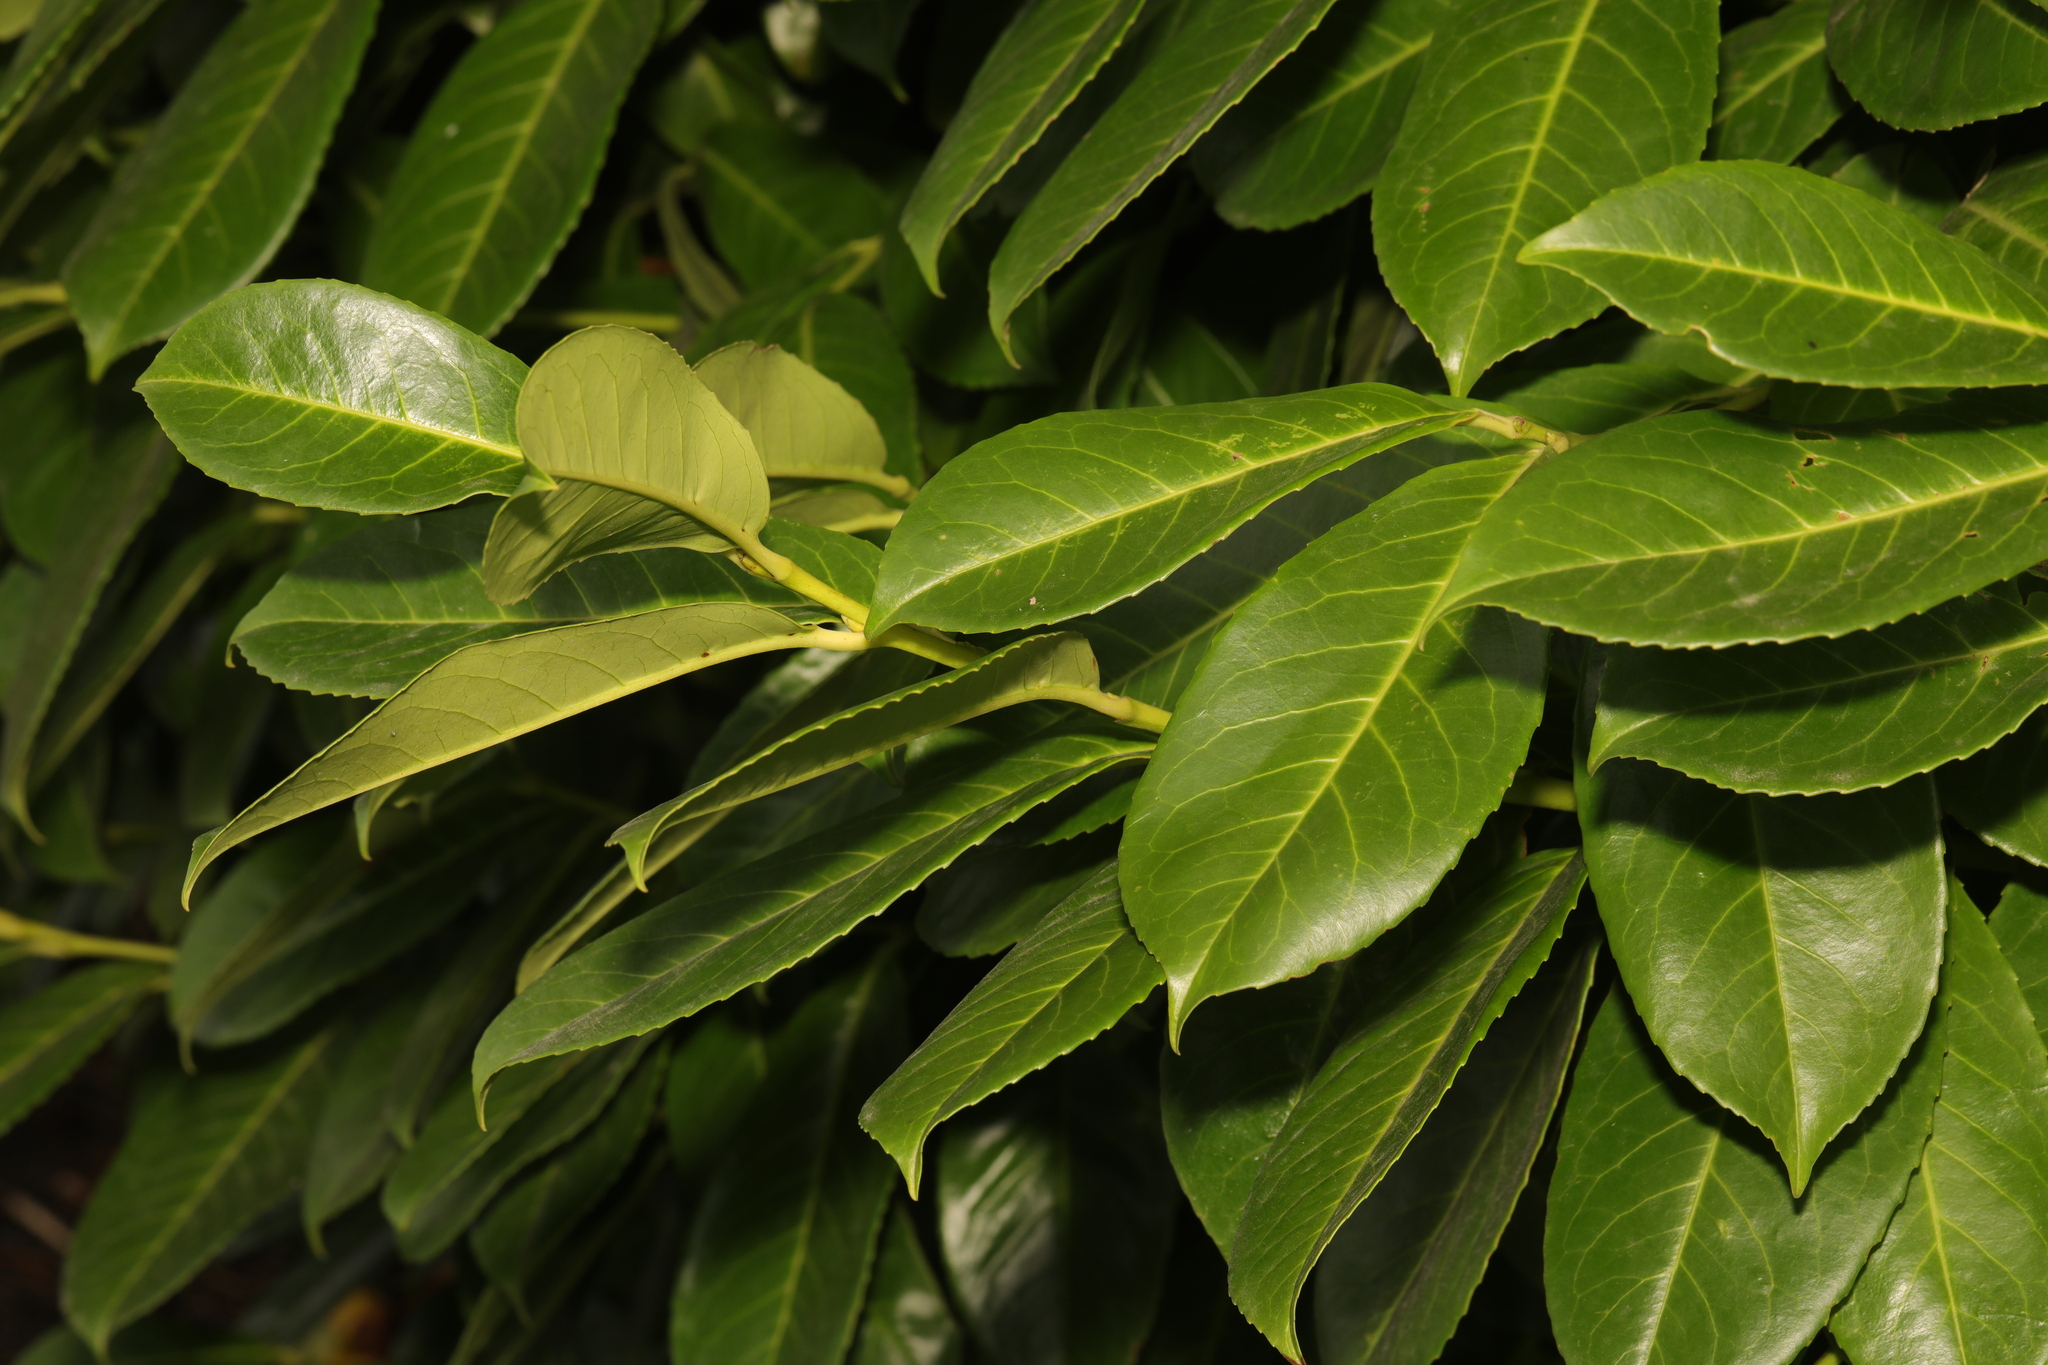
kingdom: Plantae
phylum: Tracheophyta
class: Magnoliopsida
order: Rosales
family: Rosaceae
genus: Prunus
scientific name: Prunus laurocerasus
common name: Cherry laurel
